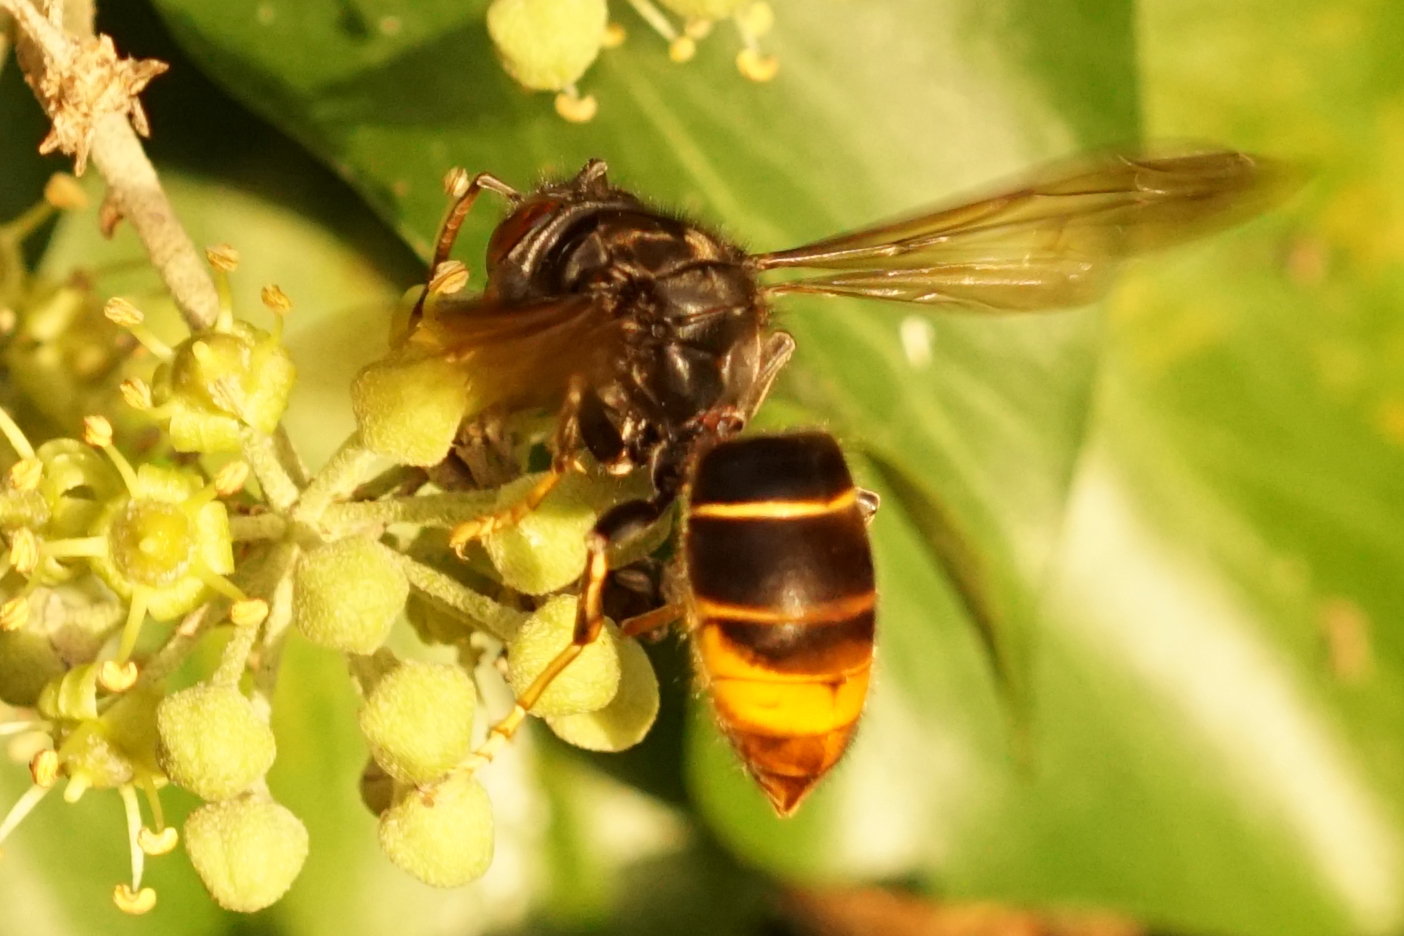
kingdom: Animalia
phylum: Arthropoda
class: Insecta
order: Hymenoptera
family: Vespidae
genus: Vespa
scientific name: Vespa velutina
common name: Asian hornet
